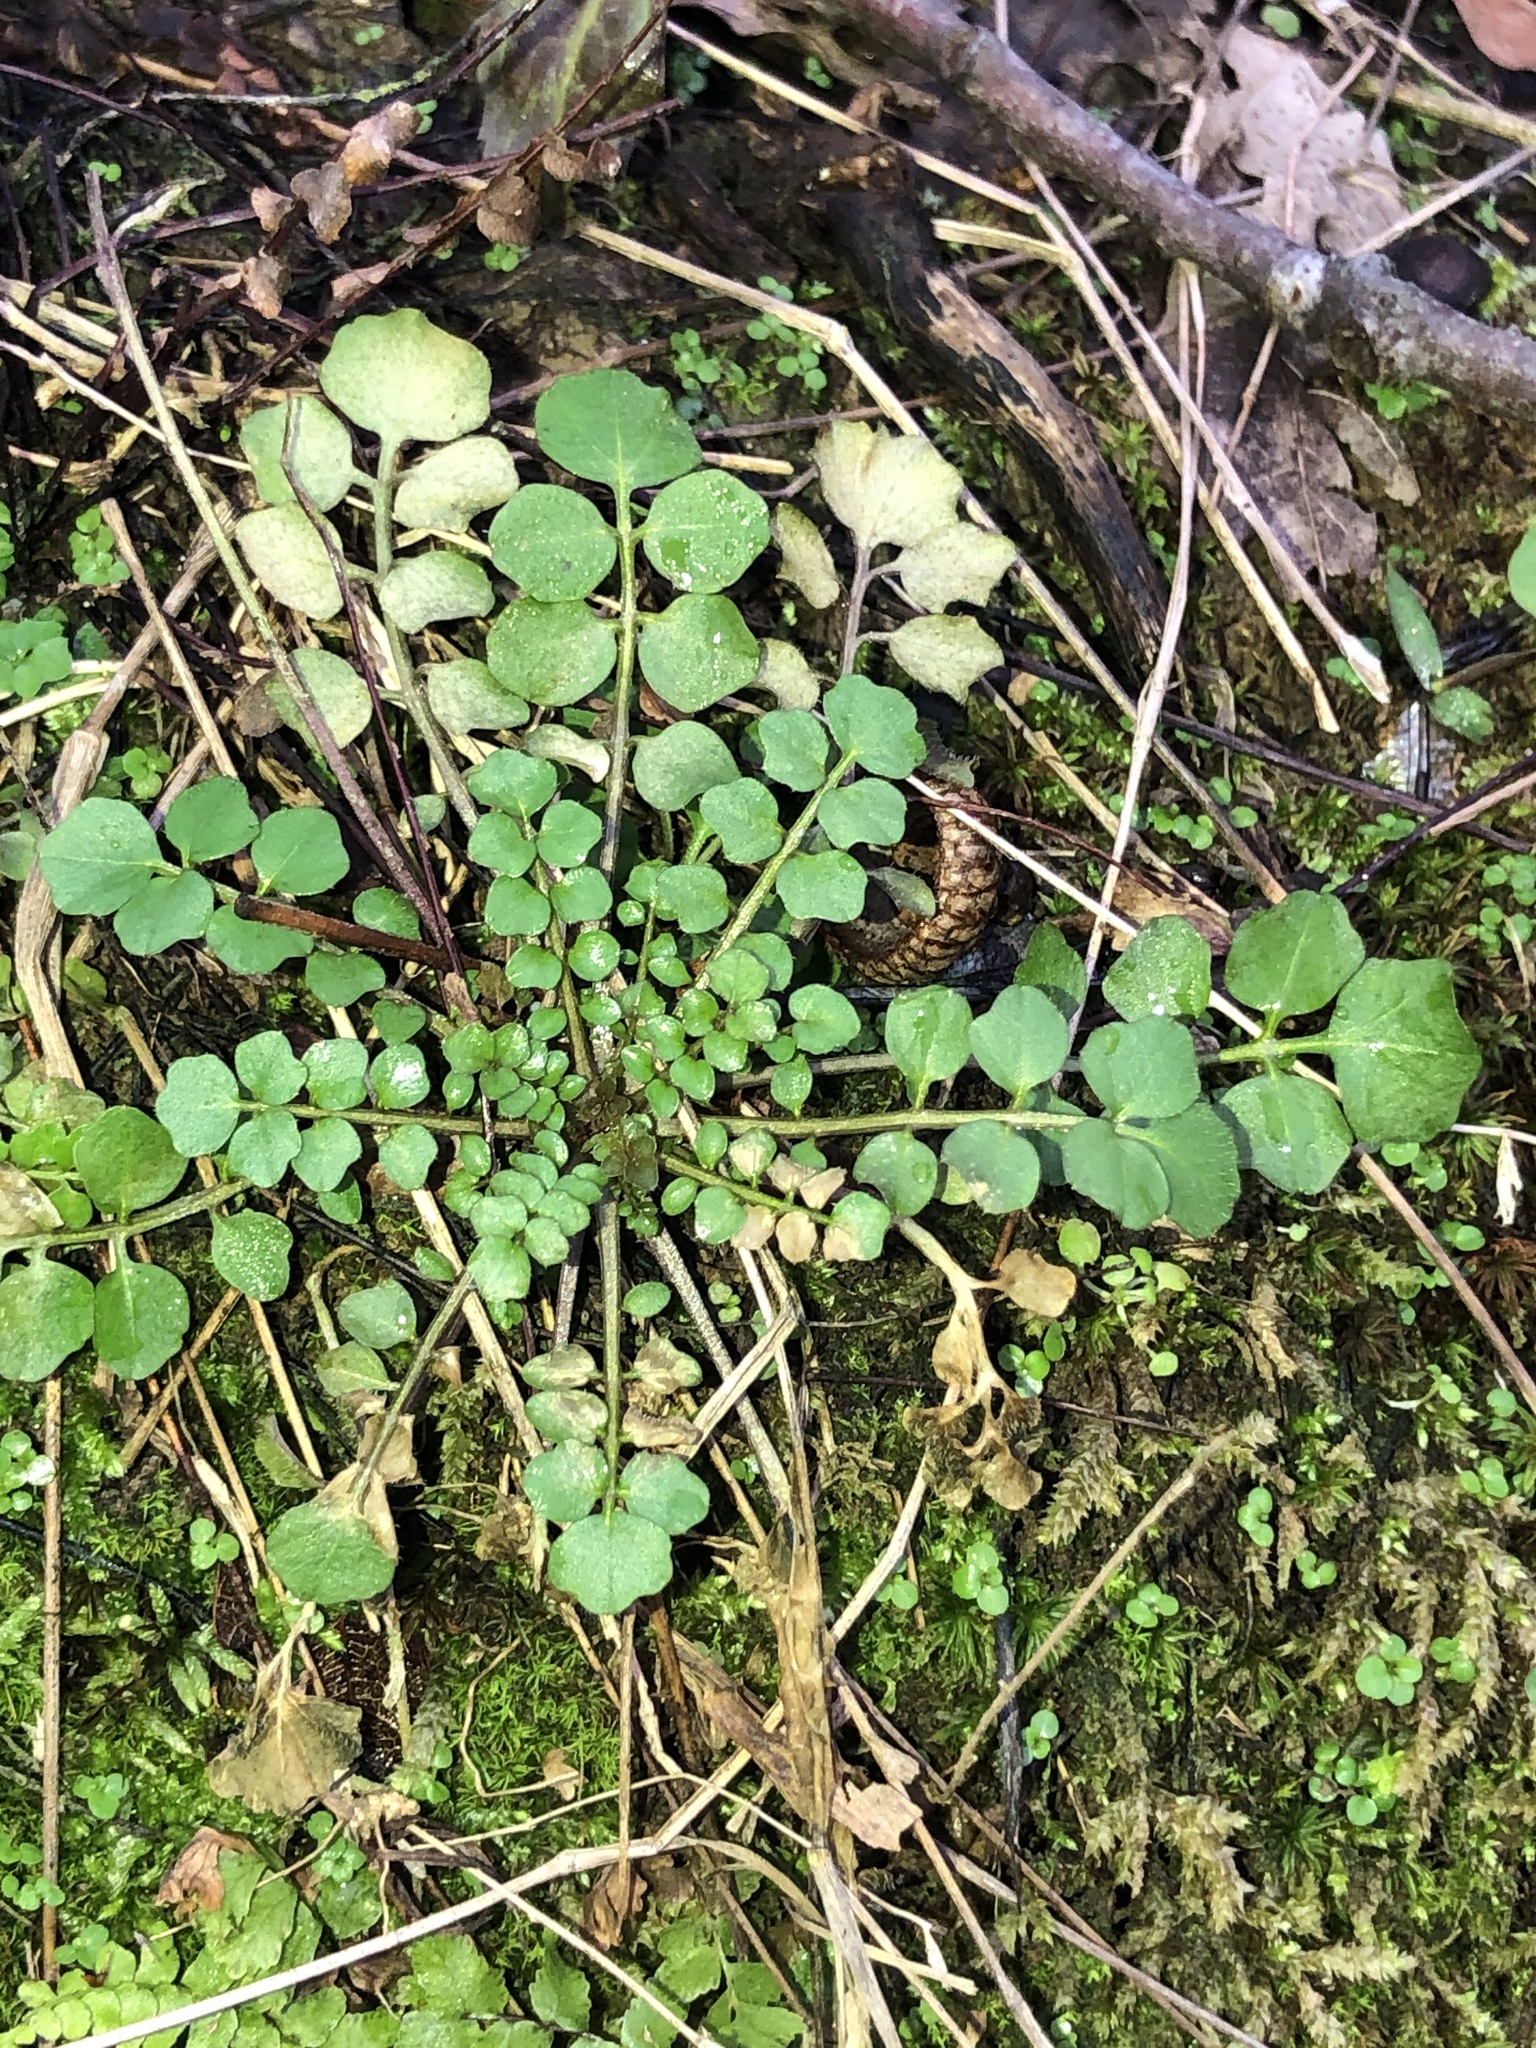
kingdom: Plantae
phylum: Tracheophyta
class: Magnoliopsida
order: Brassicales
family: Brassicaceae
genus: Cardamine
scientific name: Cardamine hirsuta
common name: Hairy bittercress
